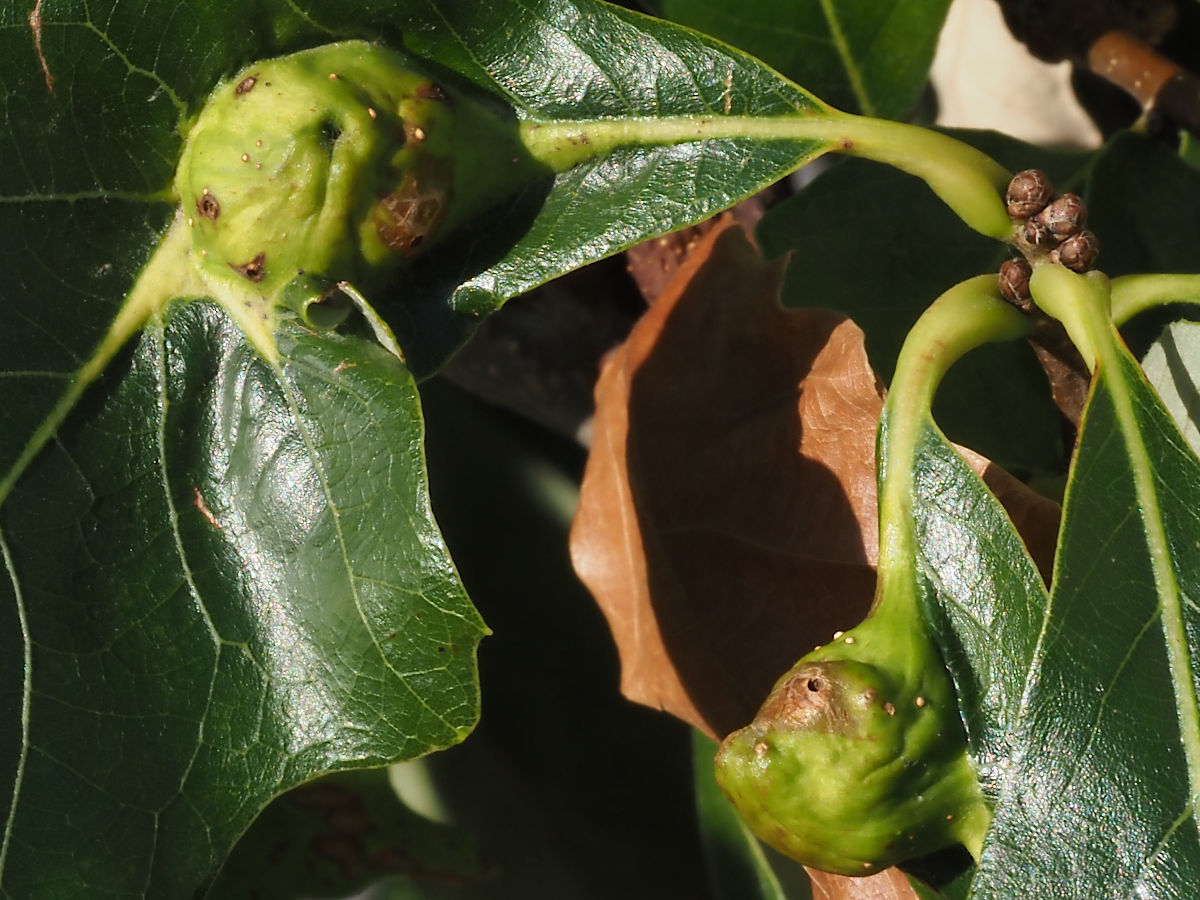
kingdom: Animalia
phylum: Arthropoda
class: Insecta
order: Hymenoptera
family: Cynipidae
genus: Andricus
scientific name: Andricus
